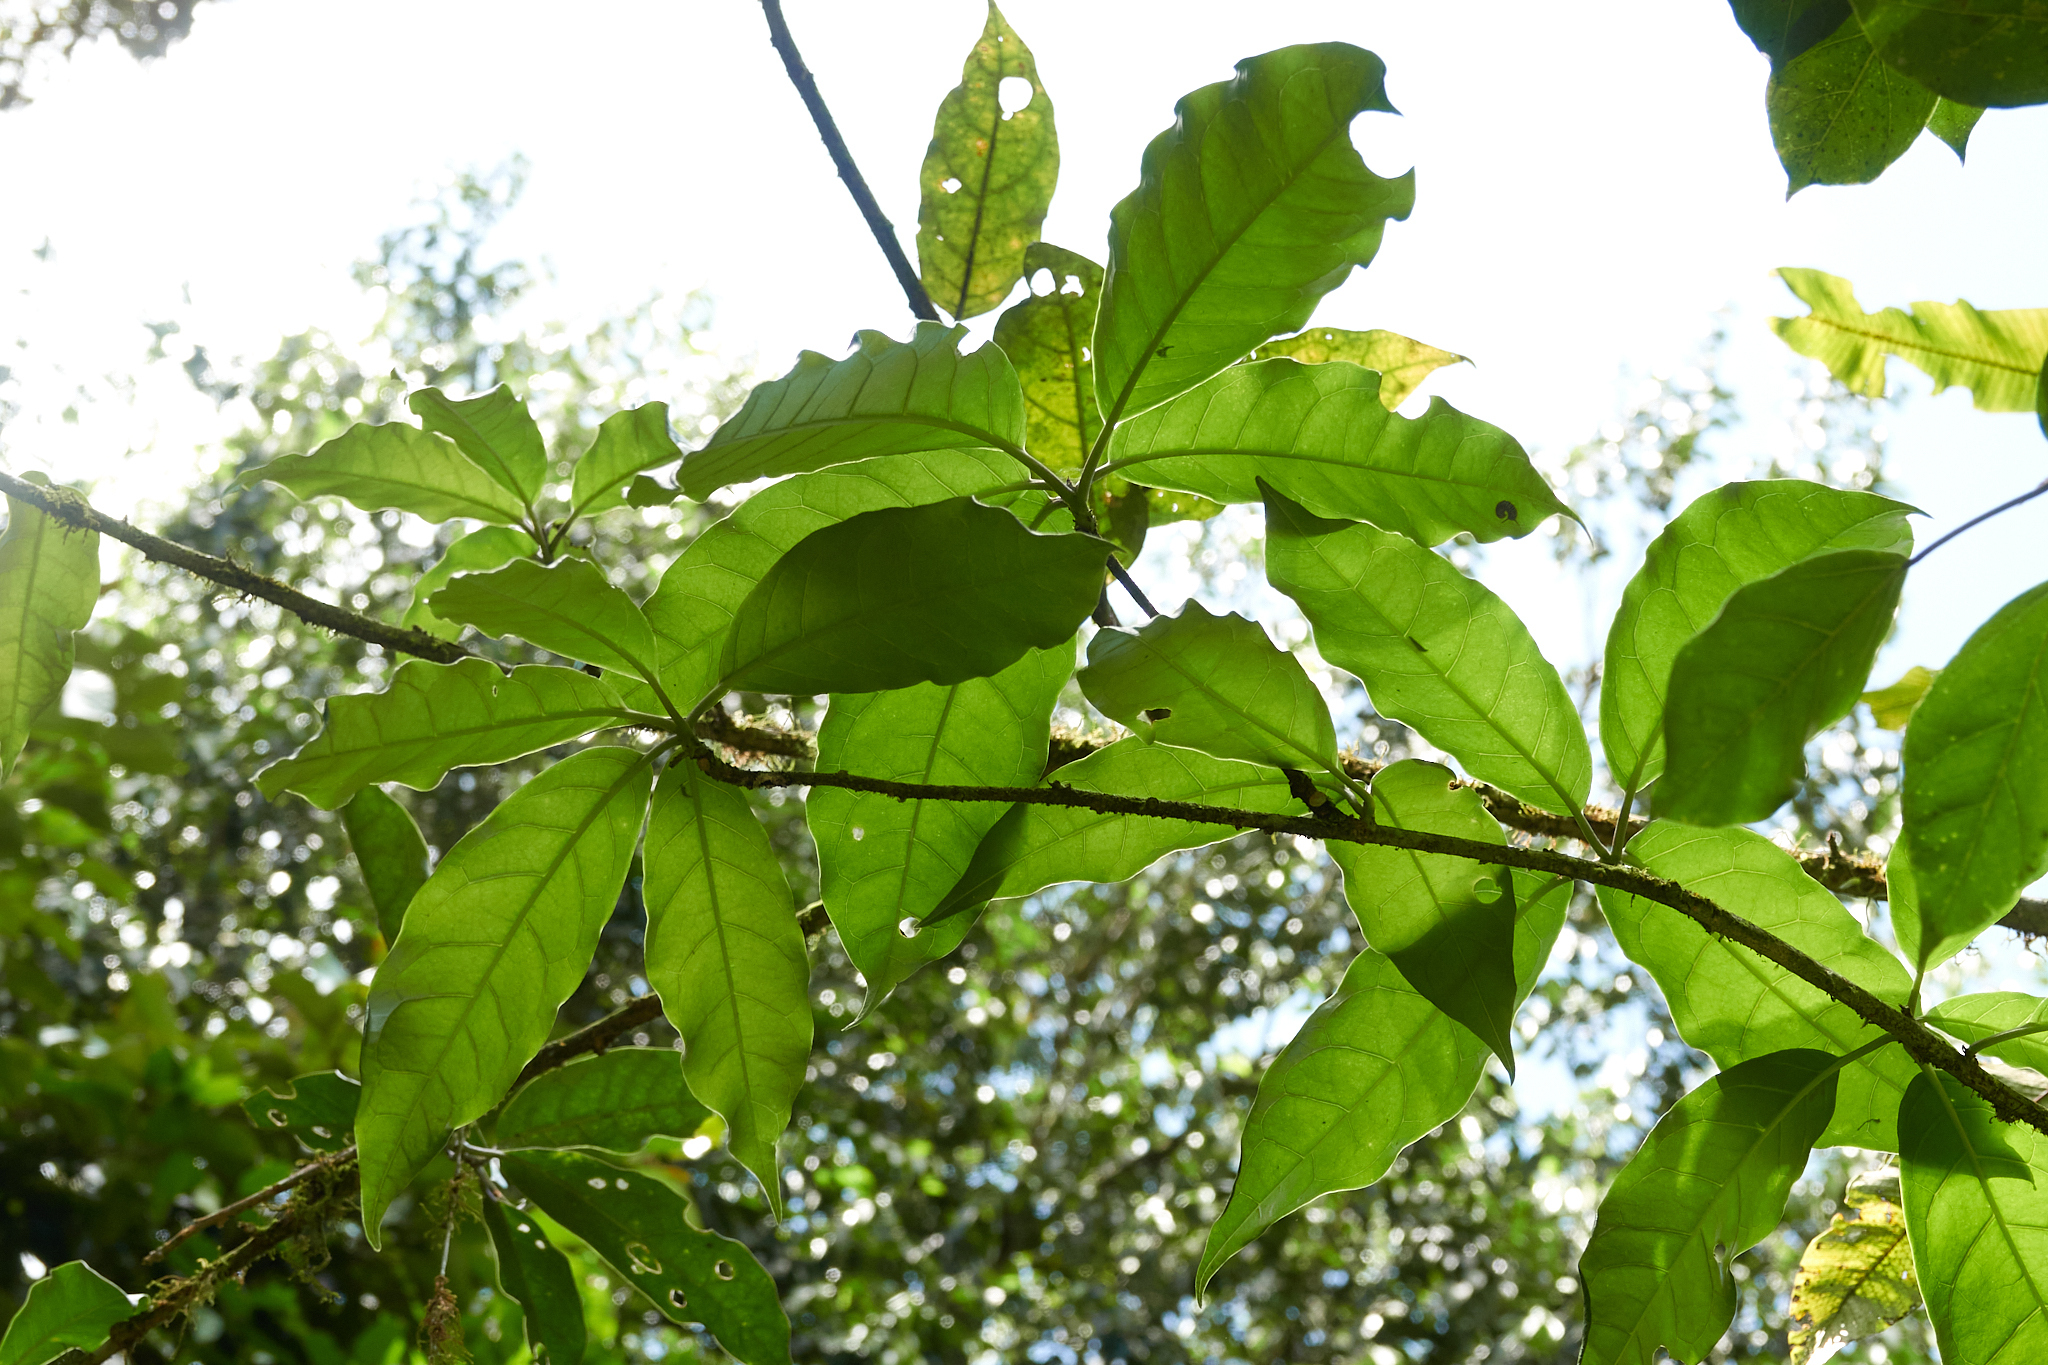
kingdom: Plantae
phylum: Tracheophyta
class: Magnoliopsida
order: Solanales
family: Solanaceae
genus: Merinthopodium
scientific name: Merinthopodium neuranthum
